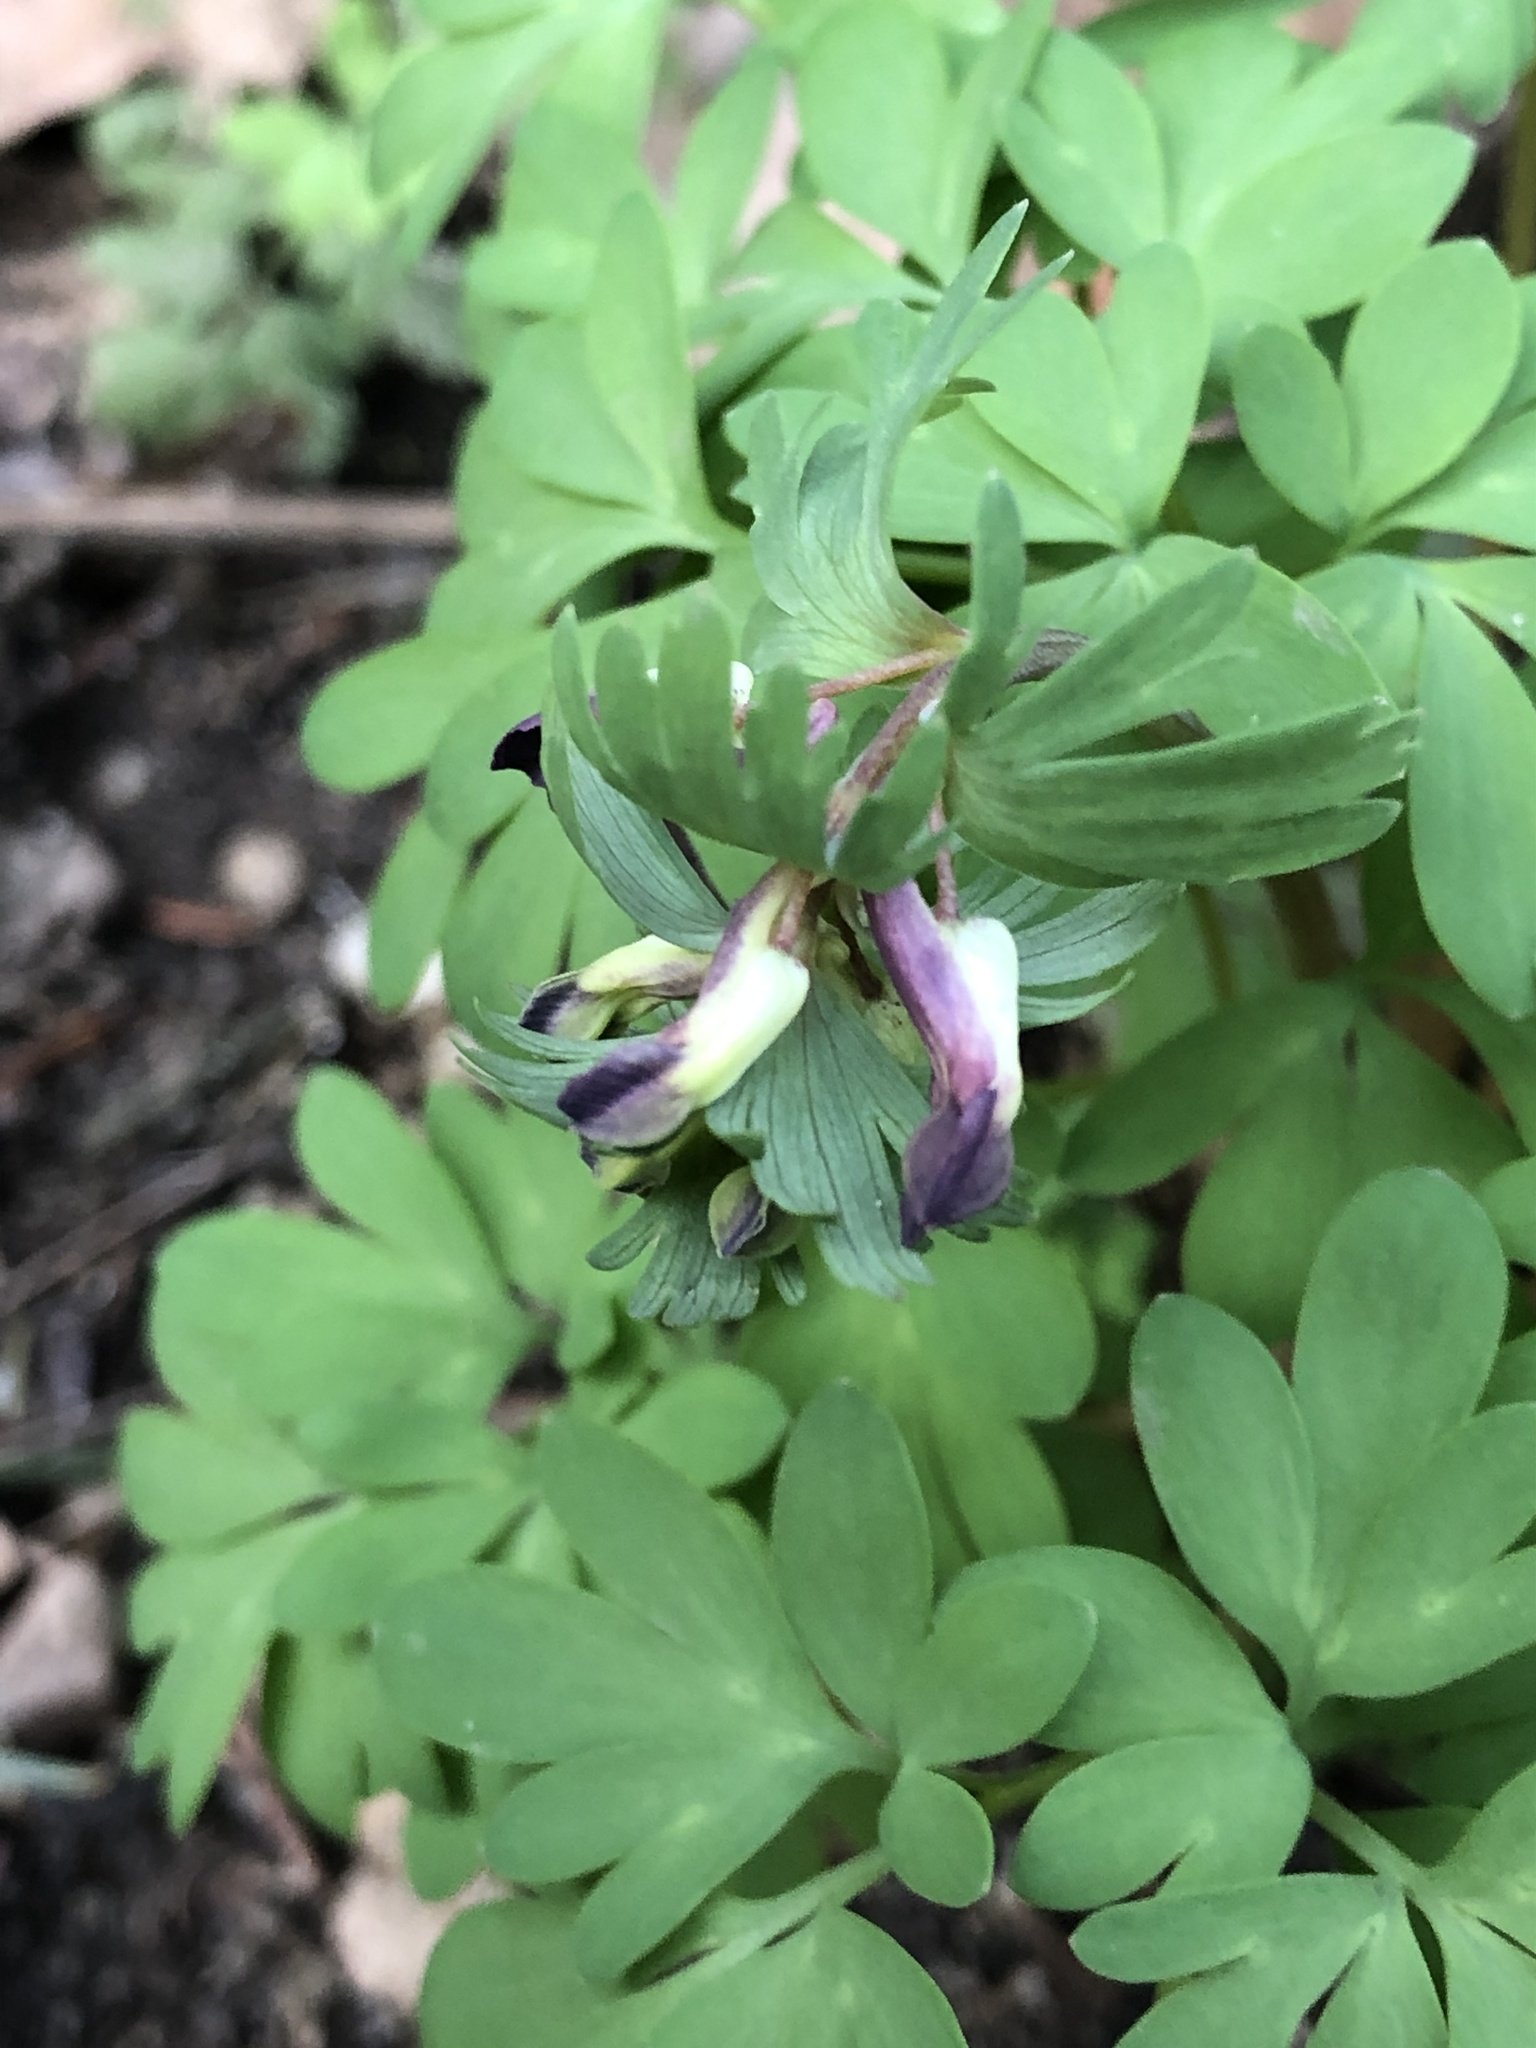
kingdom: Plantae
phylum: Tracheophyta
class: Magnoliopsida
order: Ranunculales
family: Papaveraceae
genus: Corydalis
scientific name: Corydalis solida
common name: Bird-in-a-bush
